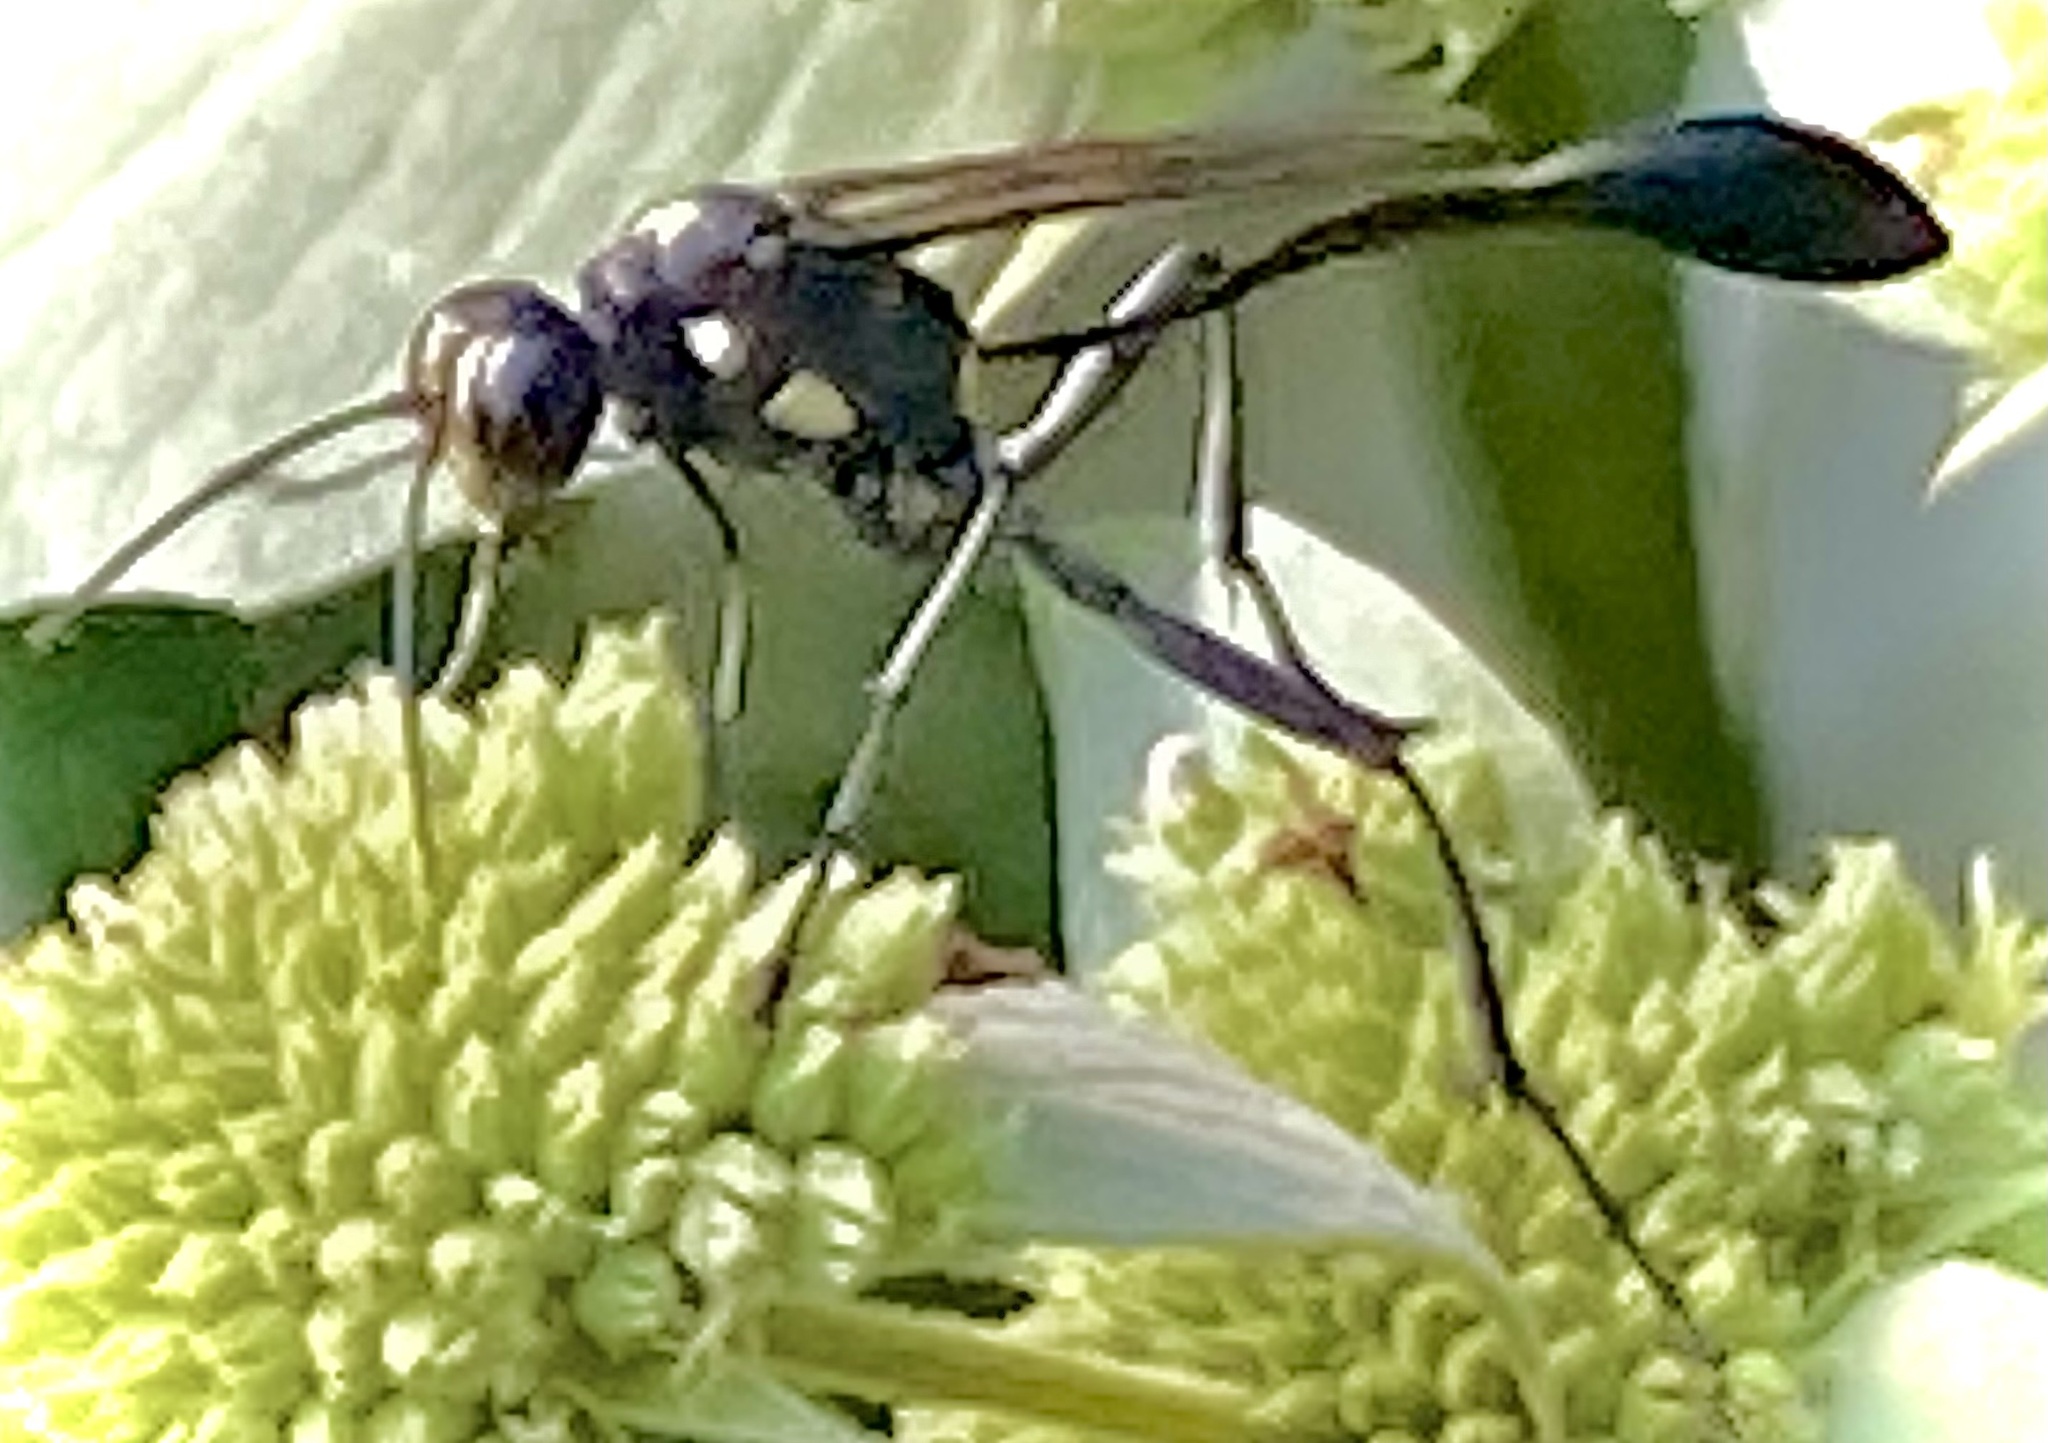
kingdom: Animalia
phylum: Arthropoda
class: Insecta
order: Hymenoptera
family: Sphecidae
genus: Eremnophila
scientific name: Eremnophila aureonotata
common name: Gold-marked thread-waisted wasp
